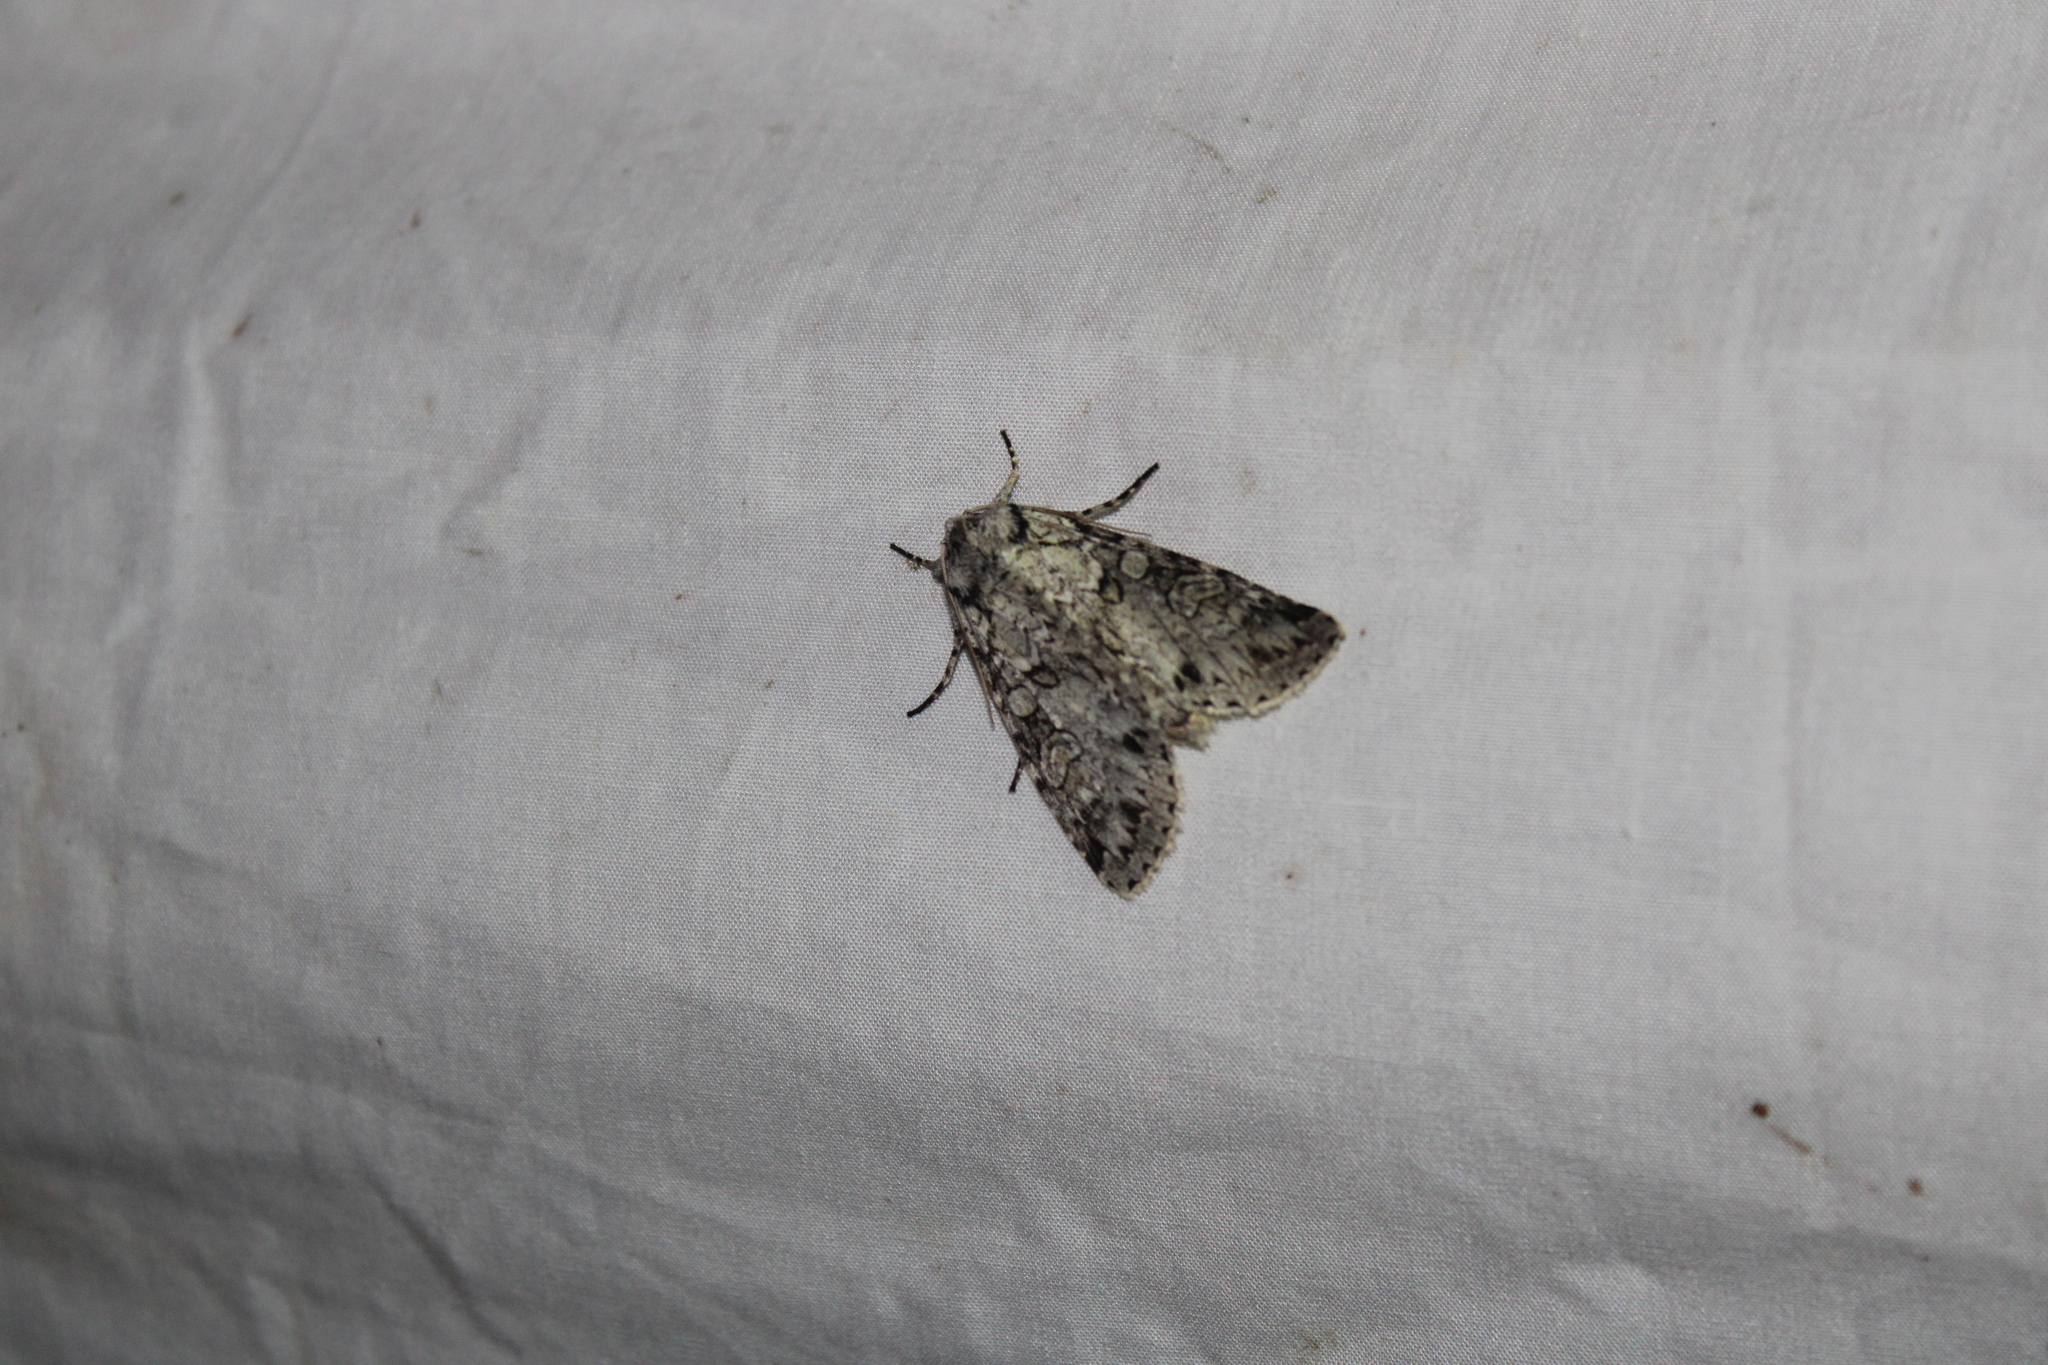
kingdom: Animalia
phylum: Arthropoda
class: Insecta
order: Lepidoptera
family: Noctuidae
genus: Polia
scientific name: Polia nimbosa
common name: Stormy arches
